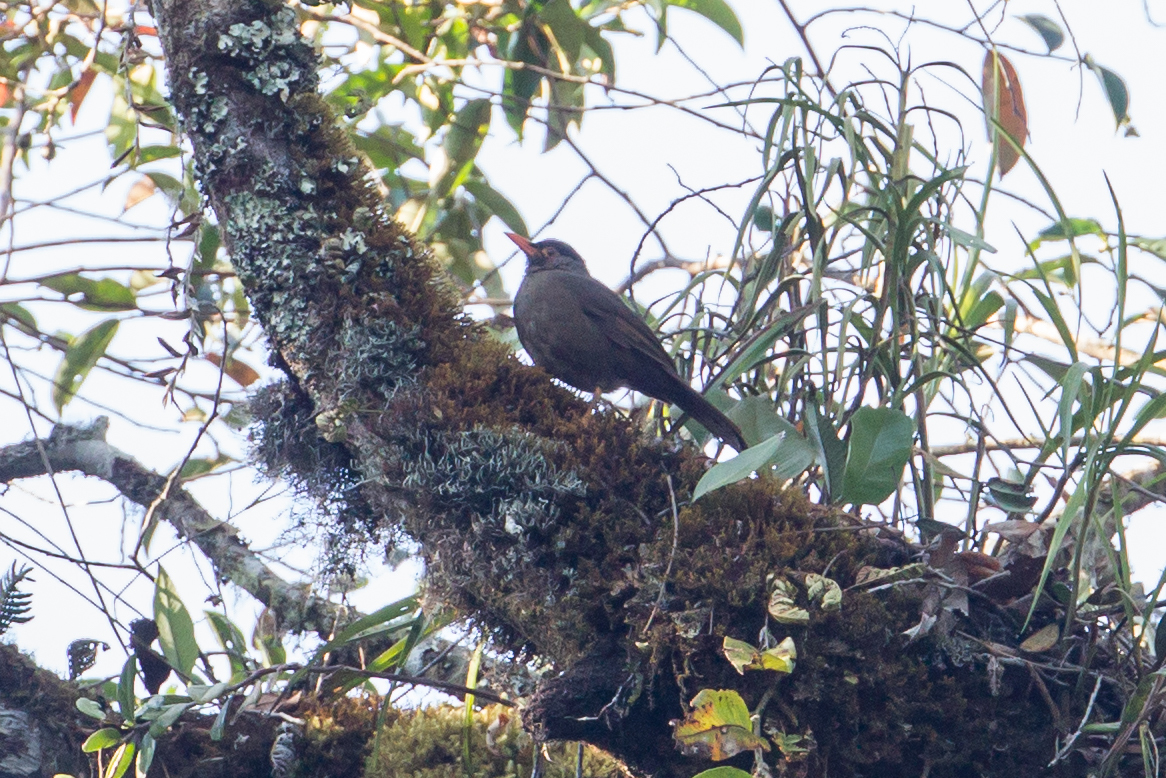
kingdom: Animalia
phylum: Chordata
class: Aves
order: Passeriformes
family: Turdidae
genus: Cataponera
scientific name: Cataponera turdoides
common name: Sulawesi thrush
